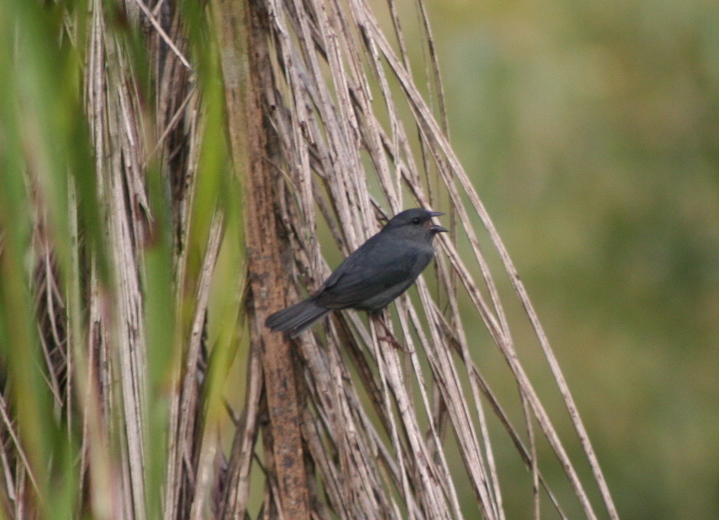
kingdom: Animalia
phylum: Chordata
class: Aves
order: Passeriformes
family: Thraupidae
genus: Haplospiza
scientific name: Haplospiza unicolor
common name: Uniform finch
